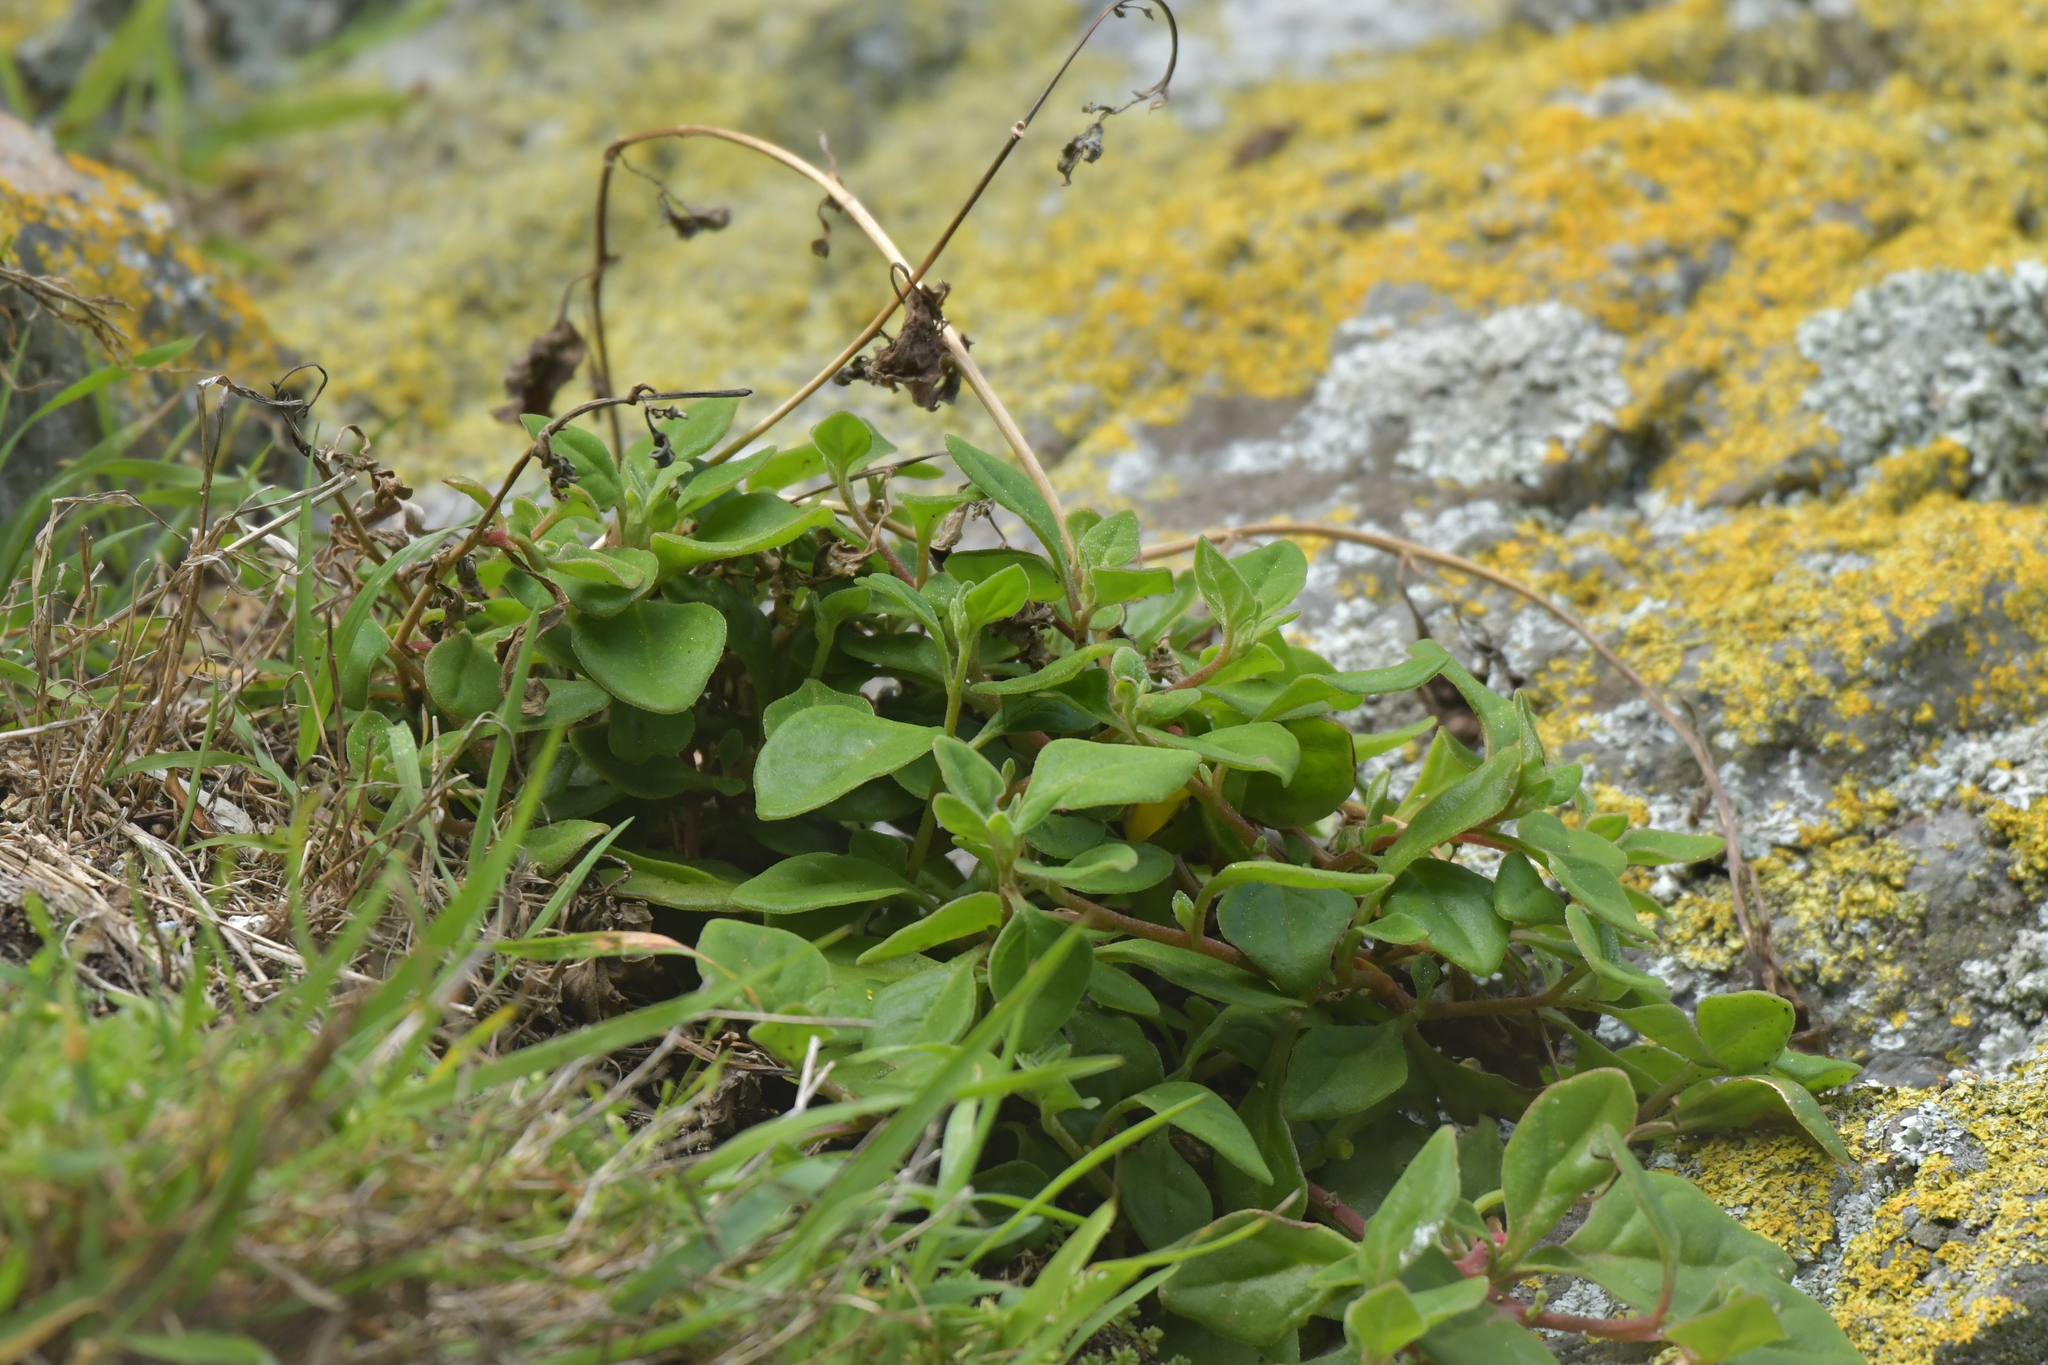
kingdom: Plantae
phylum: Tracheophyta
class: Magnoliopsida
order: Caryophyllales
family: Aizoaceae
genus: Tetragonia
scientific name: Tetragonia implexicoma
